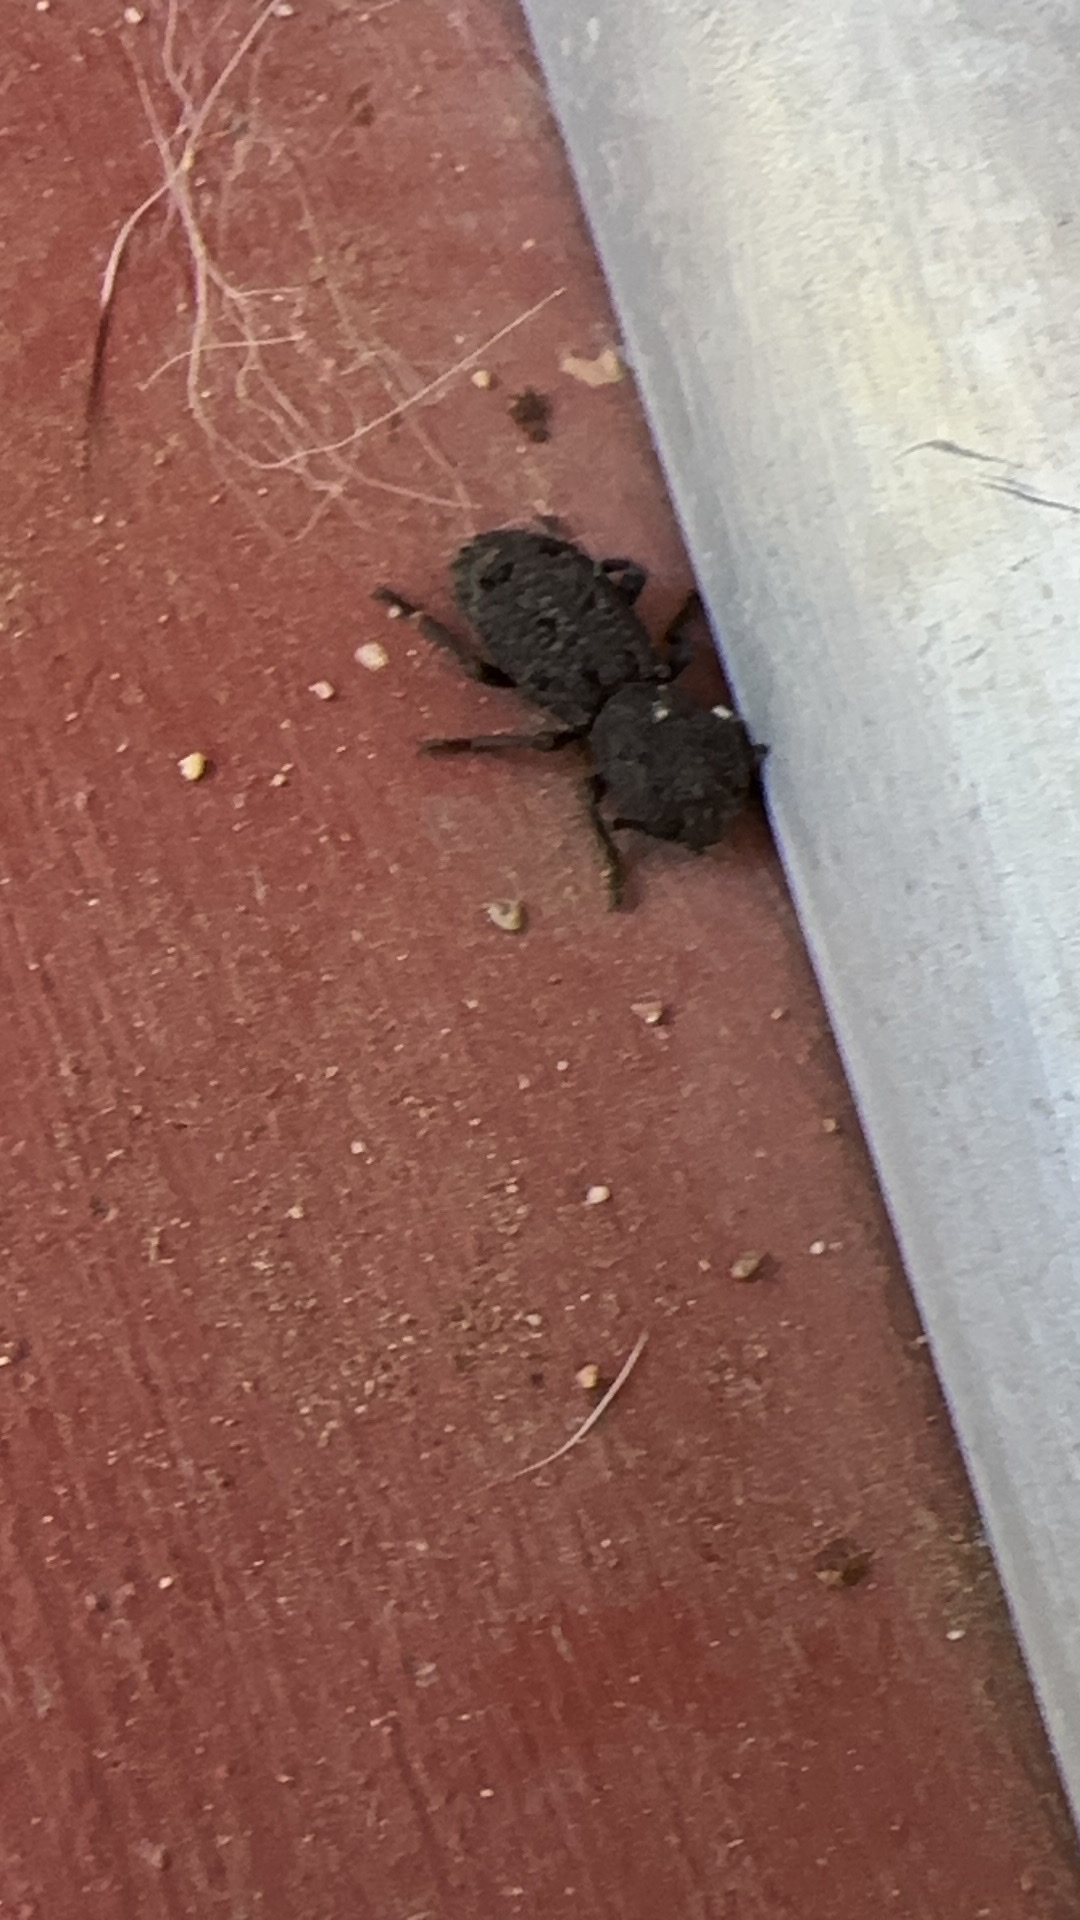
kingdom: Animalia
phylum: Arthropoda
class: Insecta
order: Coleoptera
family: Zopheridae
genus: Phloeodes
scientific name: Phloeodes diabolicus
